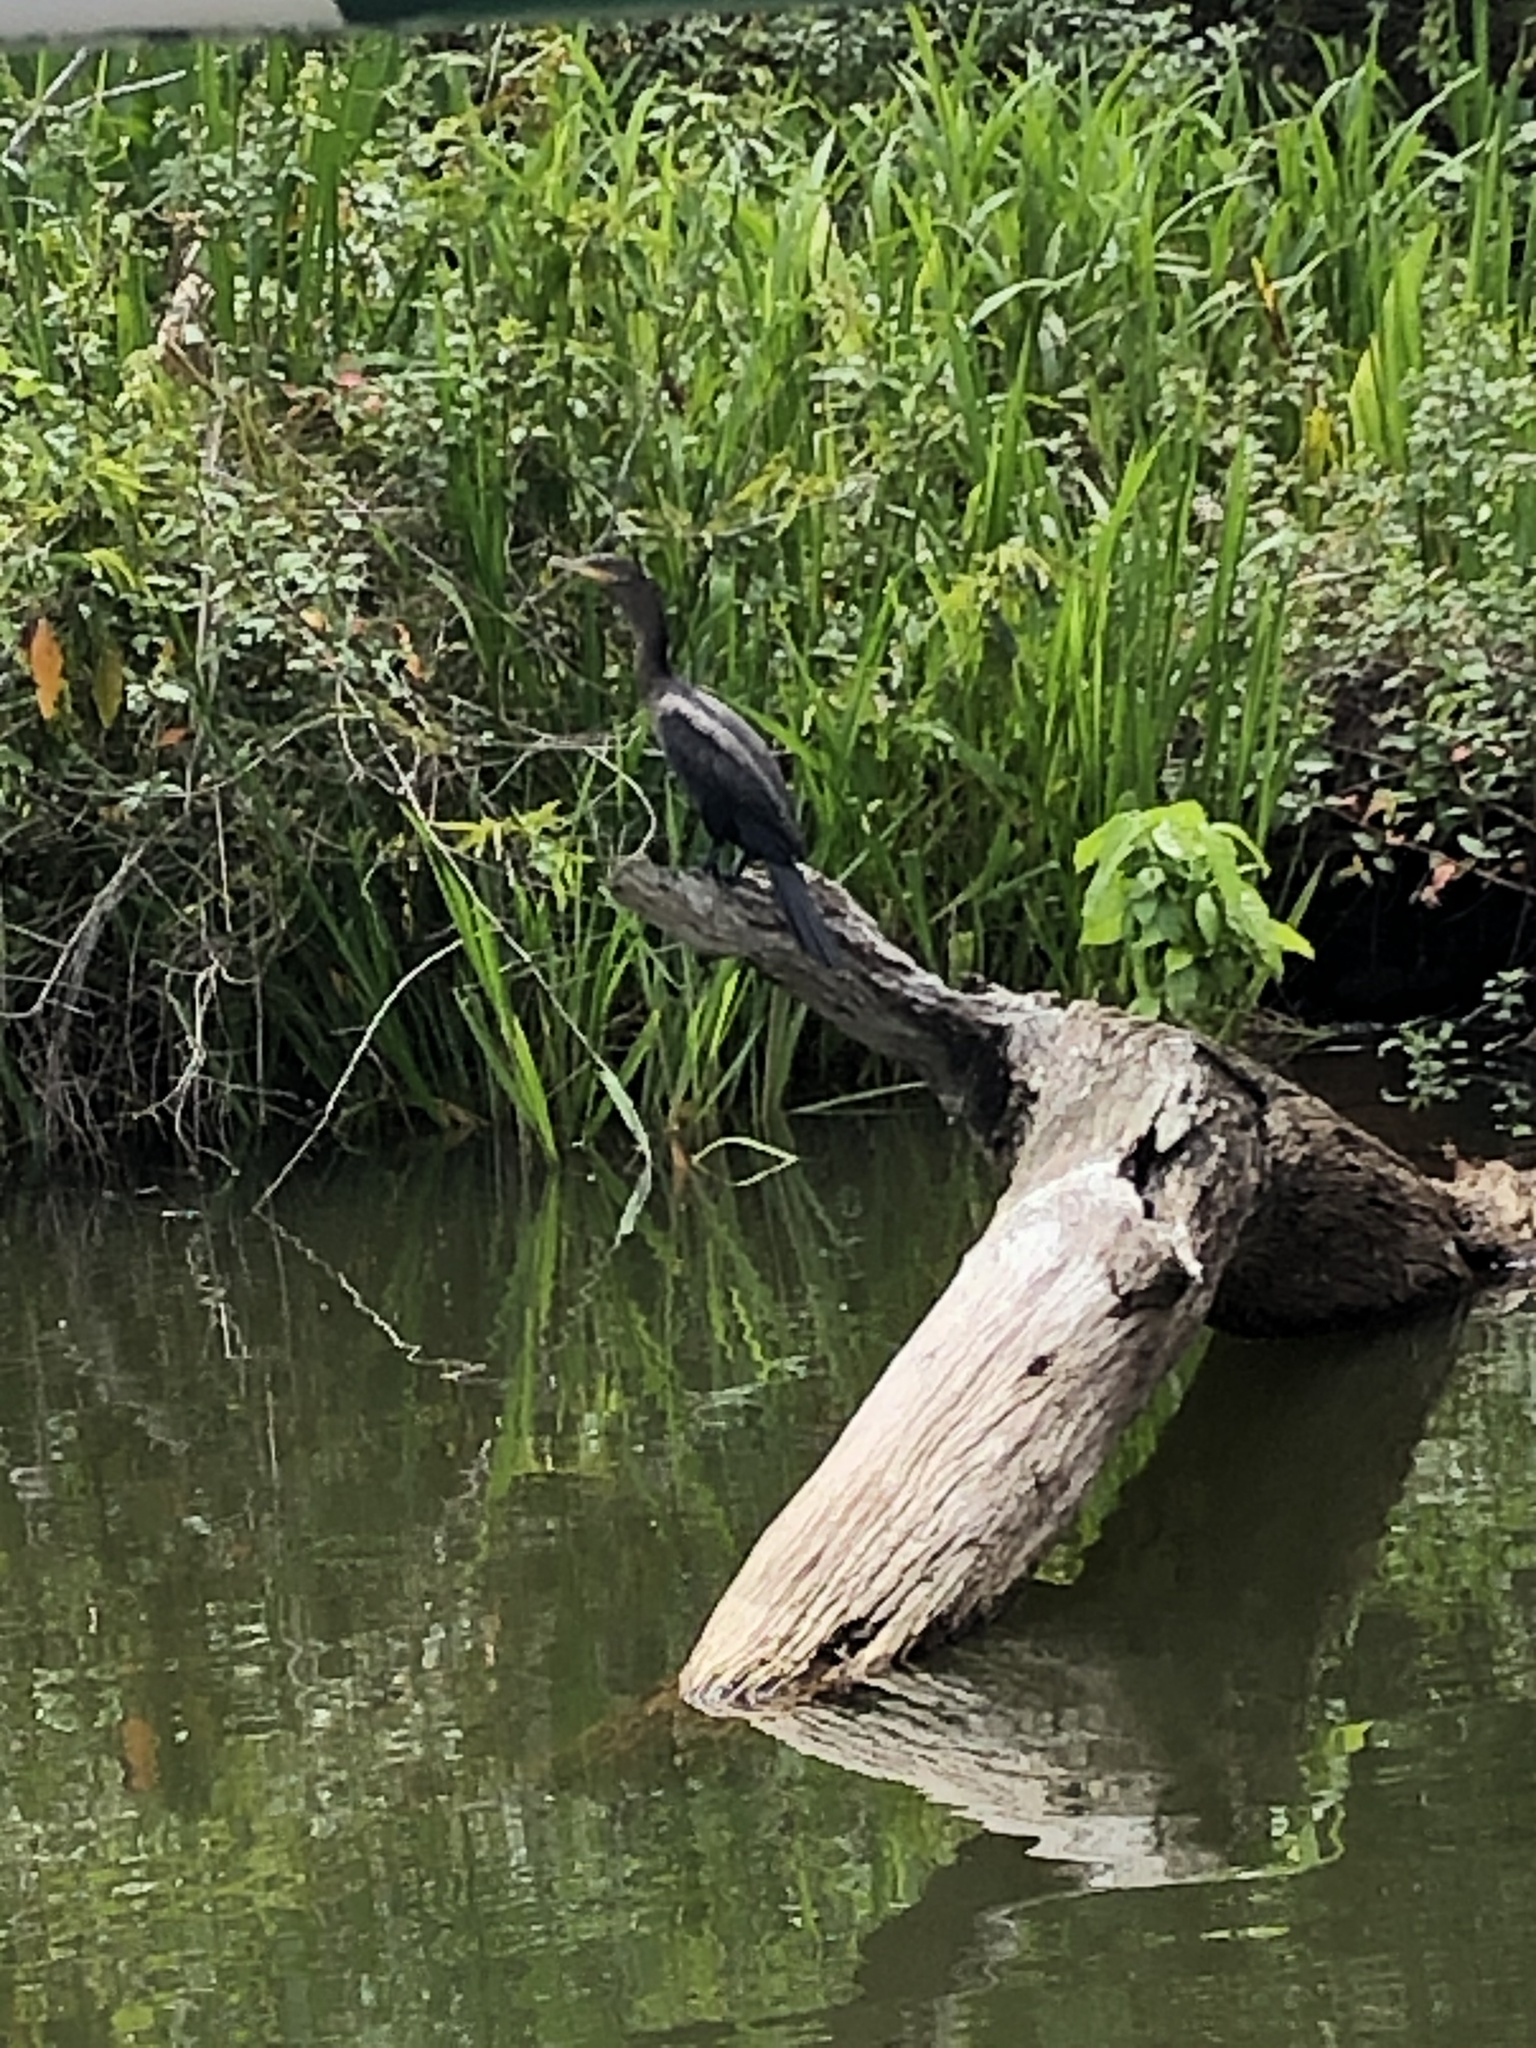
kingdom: Animalia
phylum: Chordata
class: Aves
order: Suliformes
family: Phalacrocoracidae
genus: Phalacrocorax
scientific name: Phalacrocorax brasilianus
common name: Neotropic cormorant
